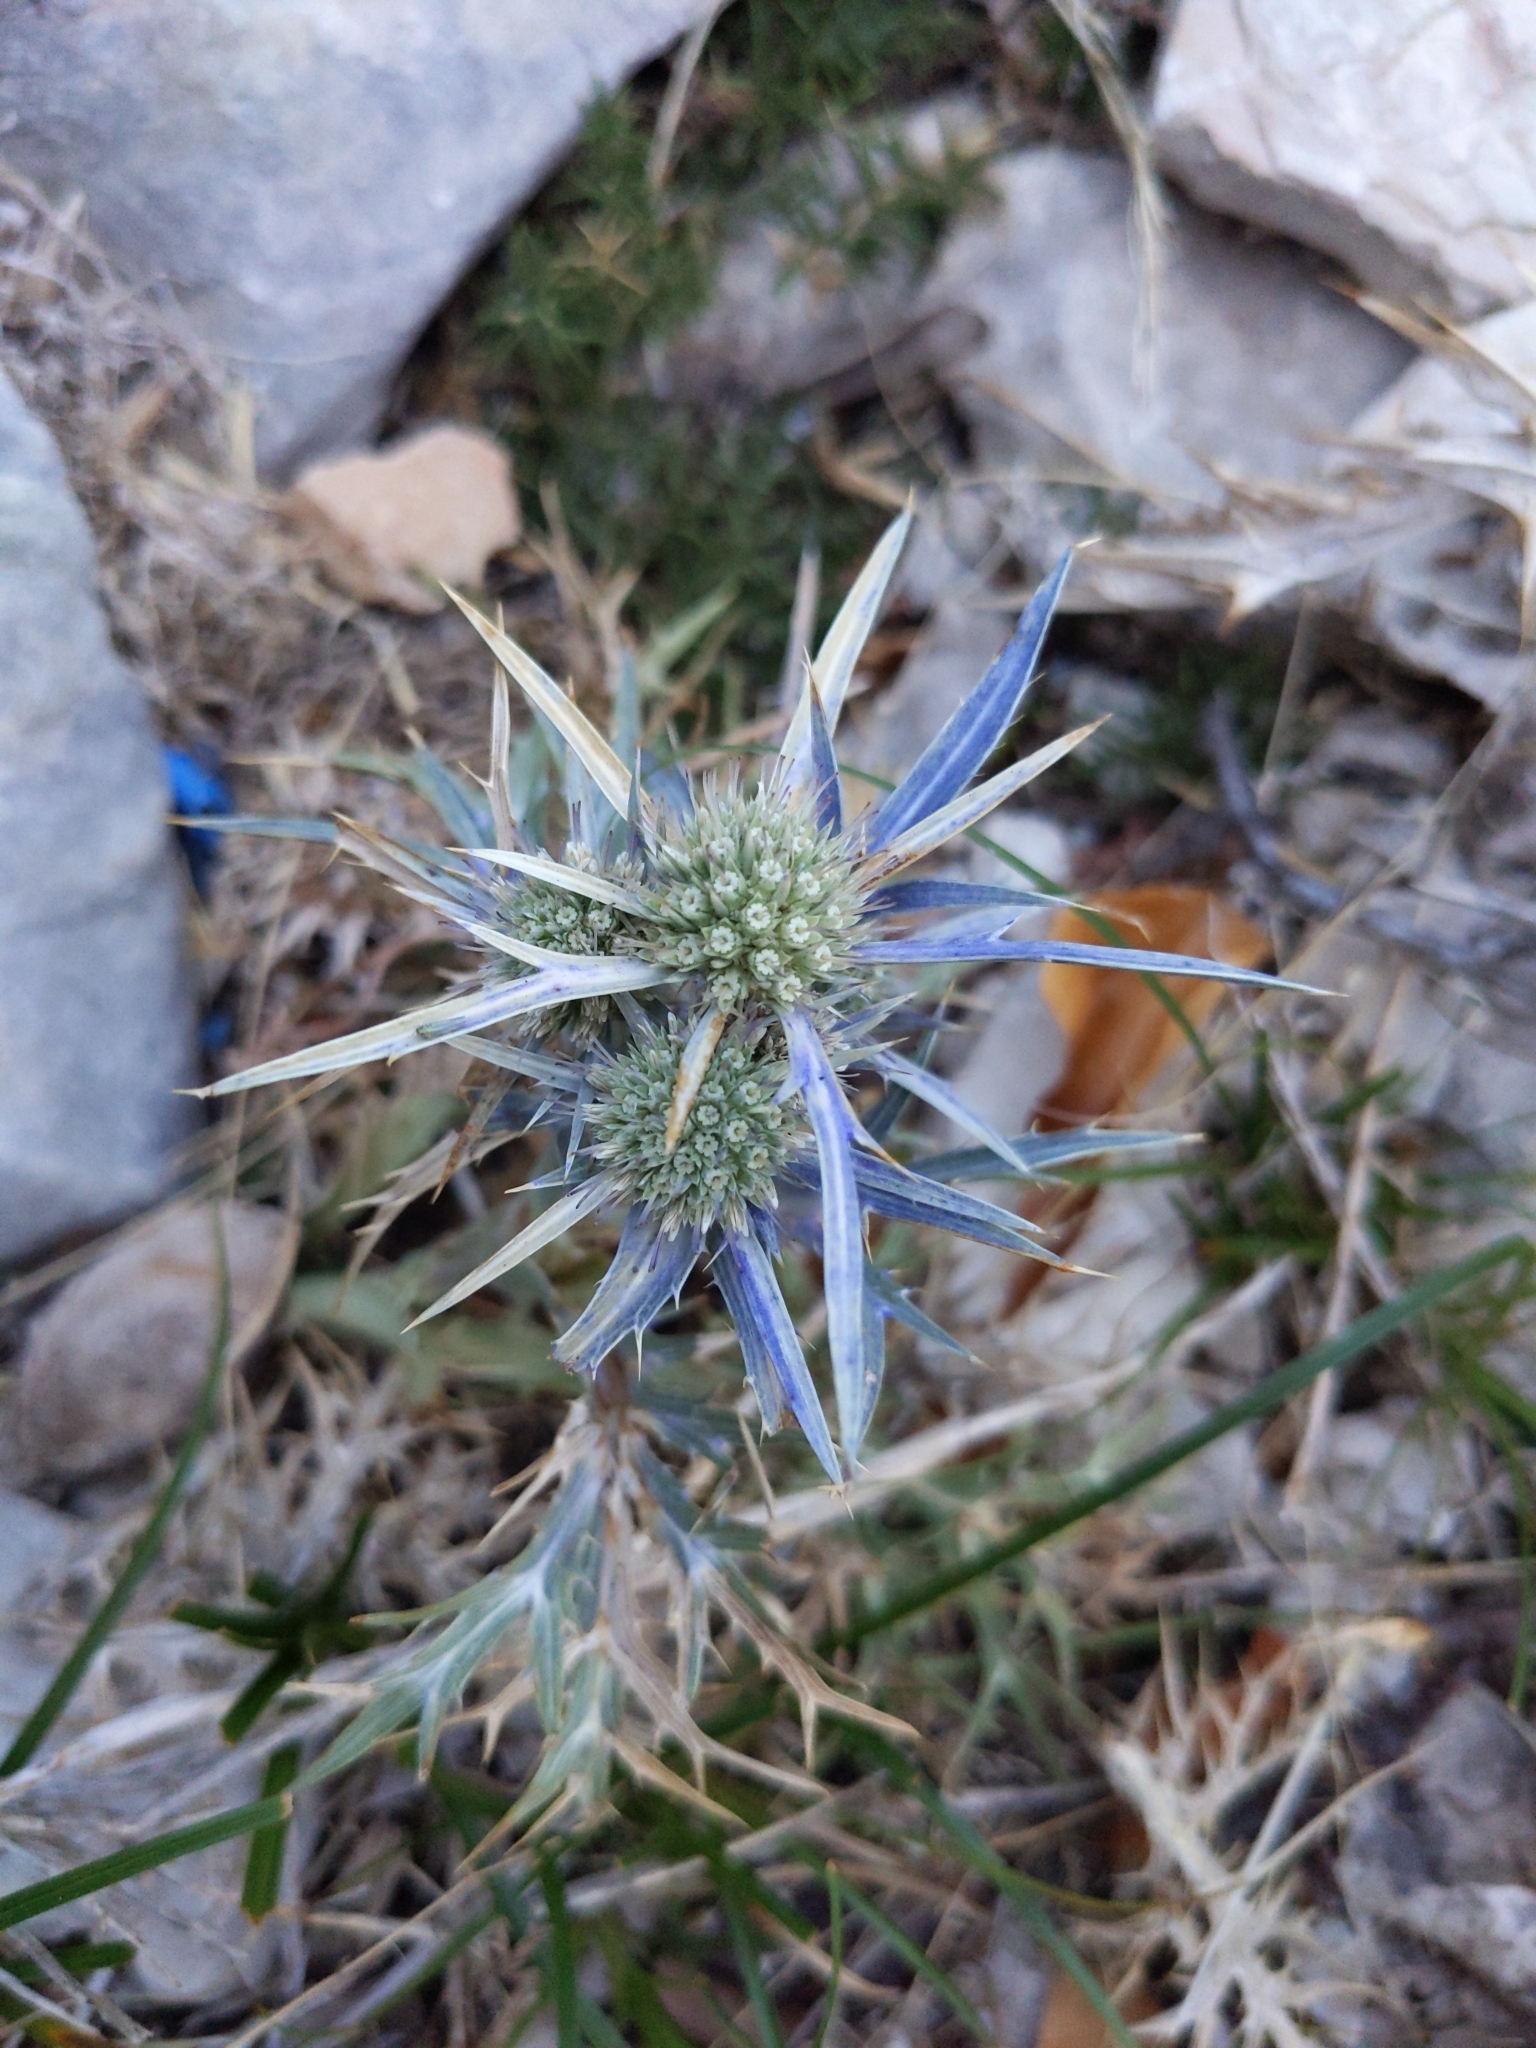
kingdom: Plantae
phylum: Tracheophyta
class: Magnoliopsida
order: Apiales
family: Apiaceae
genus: Eryngium
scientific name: Eryngium amethystinum
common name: Amethyst eryngo
